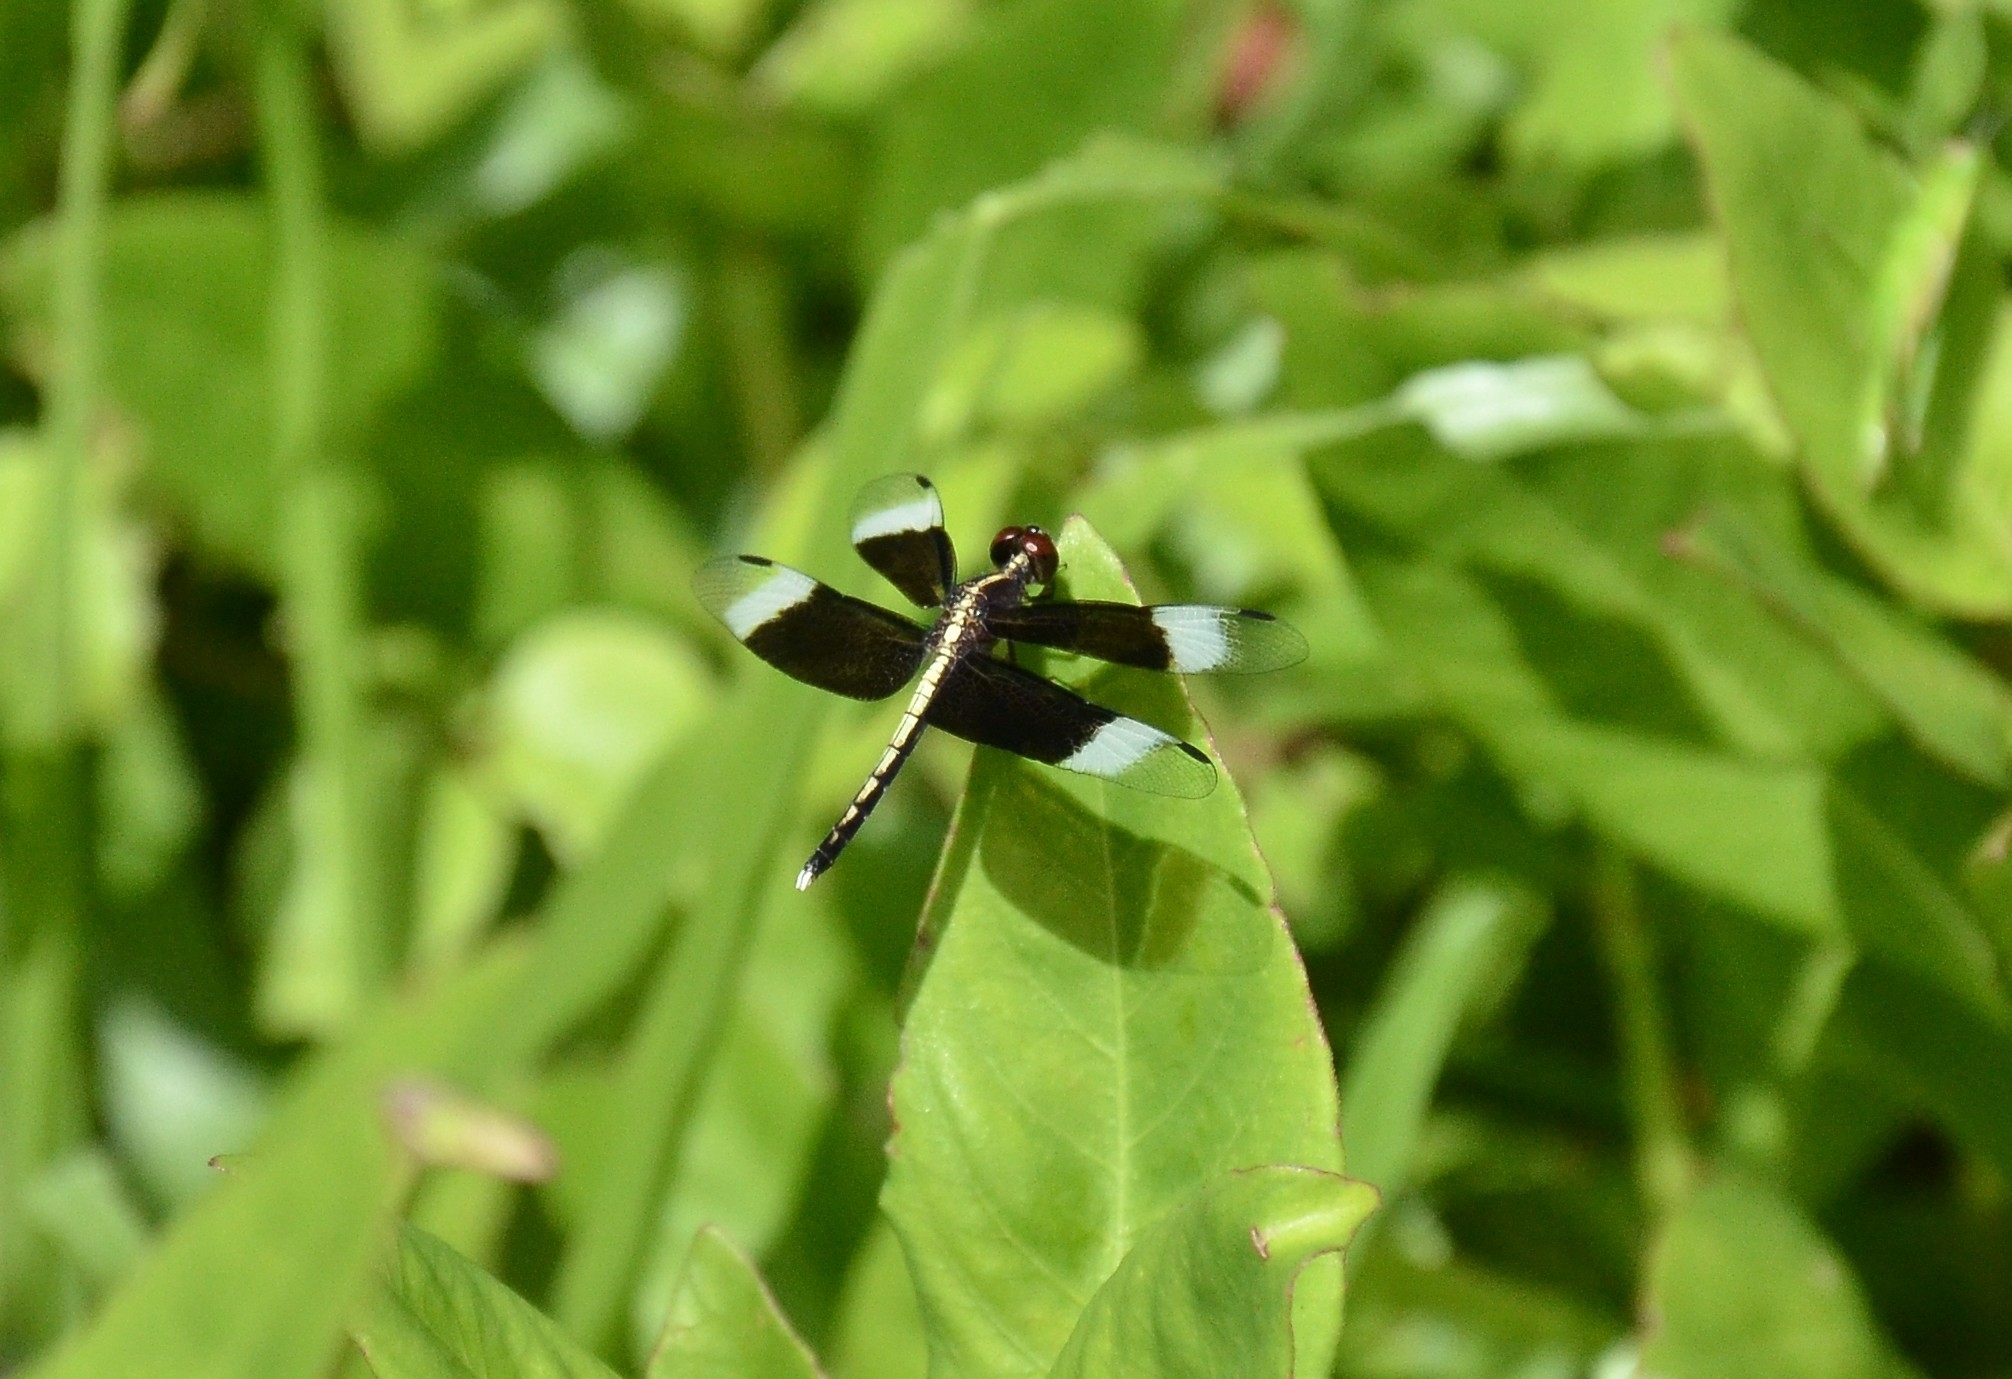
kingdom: Animalia
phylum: Arthropoda
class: Insecta
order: Odonata
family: Libellulidae
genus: Neurothemis
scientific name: Neurothemis tullia
